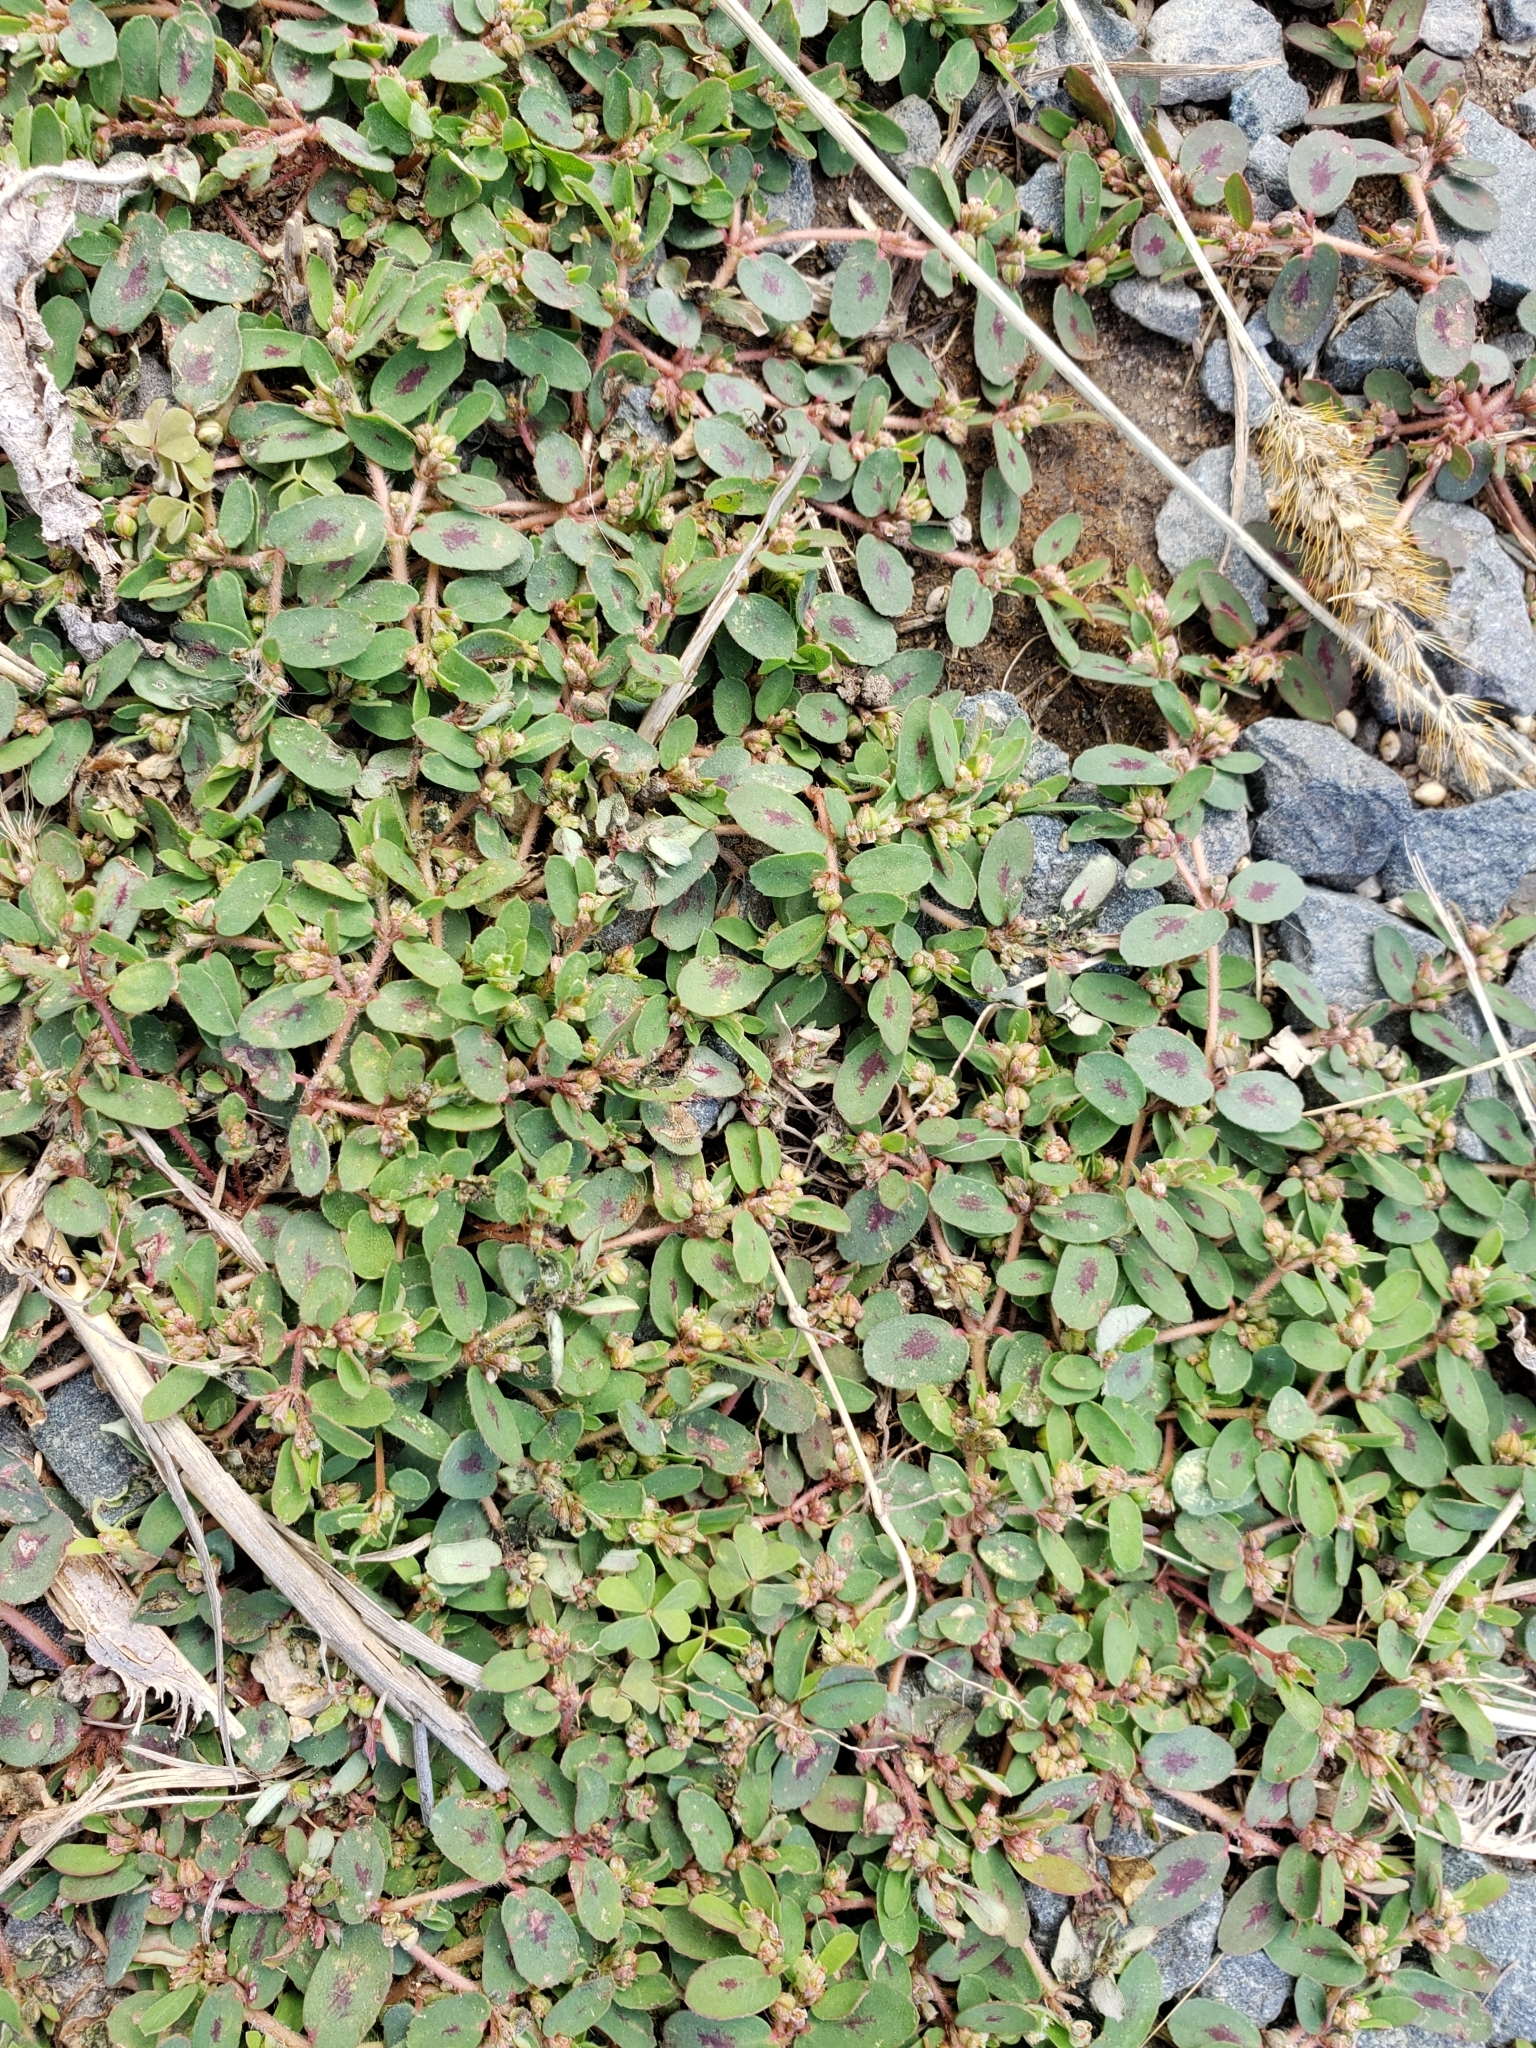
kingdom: Plantae
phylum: Tracheophyta
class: Magnoliopsida
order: Malpighiales
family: Euphorbiaceae
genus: Euphorbia
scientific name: Euphorbia maculata
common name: Spotted spurge
